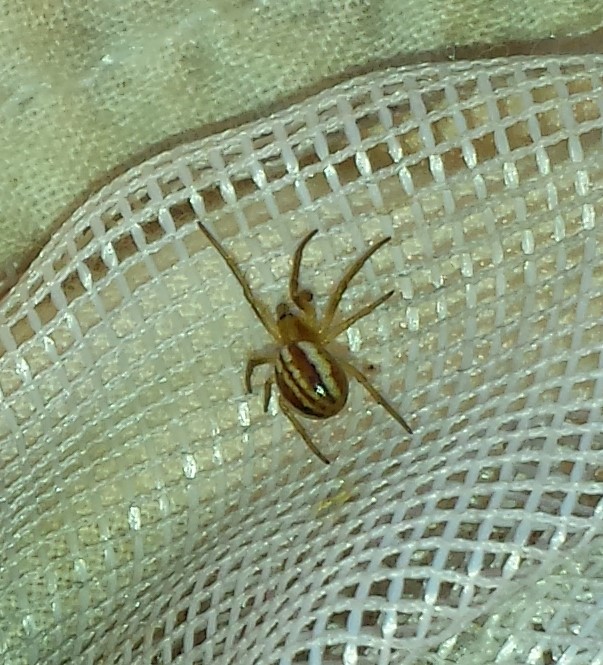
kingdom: Animalia
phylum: Arthropoda
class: Arachnida
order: Araneae
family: Araneidae
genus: Araneus
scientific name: Araneus pratensis
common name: Openfield orbweaver
